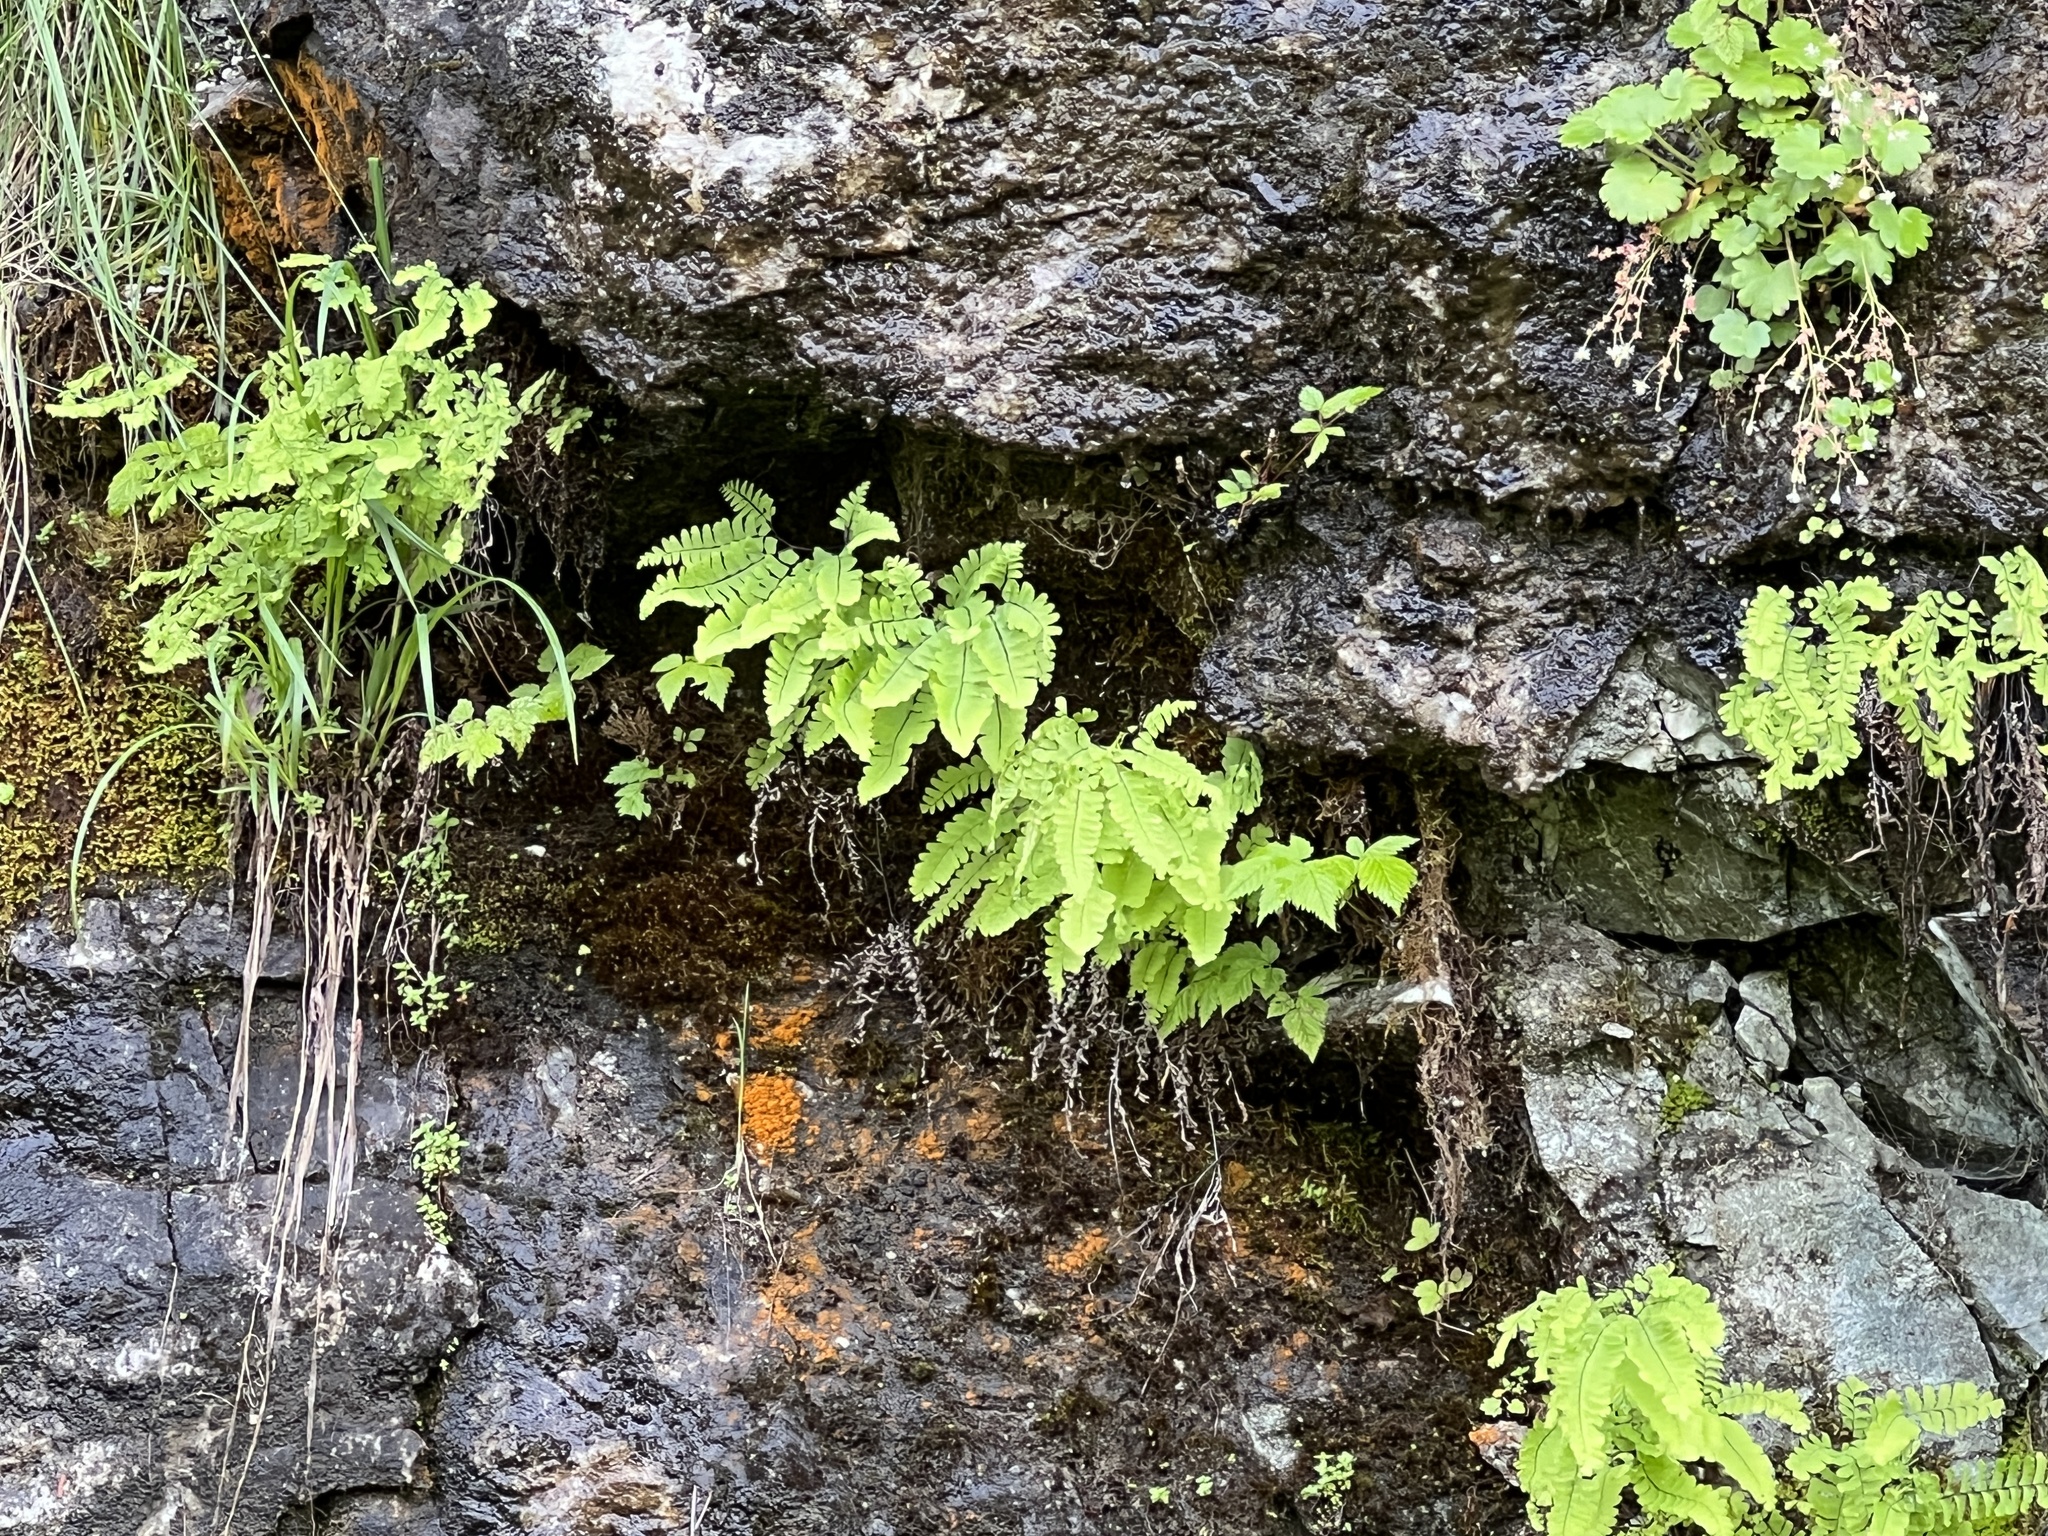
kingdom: Plantae
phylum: Tracheophyta
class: Polypodiopsida
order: Polypodiales
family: Pteridaceae
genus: Adiantum
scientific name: Adiantum aleuticum
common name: Aleutian maidenhair fern
